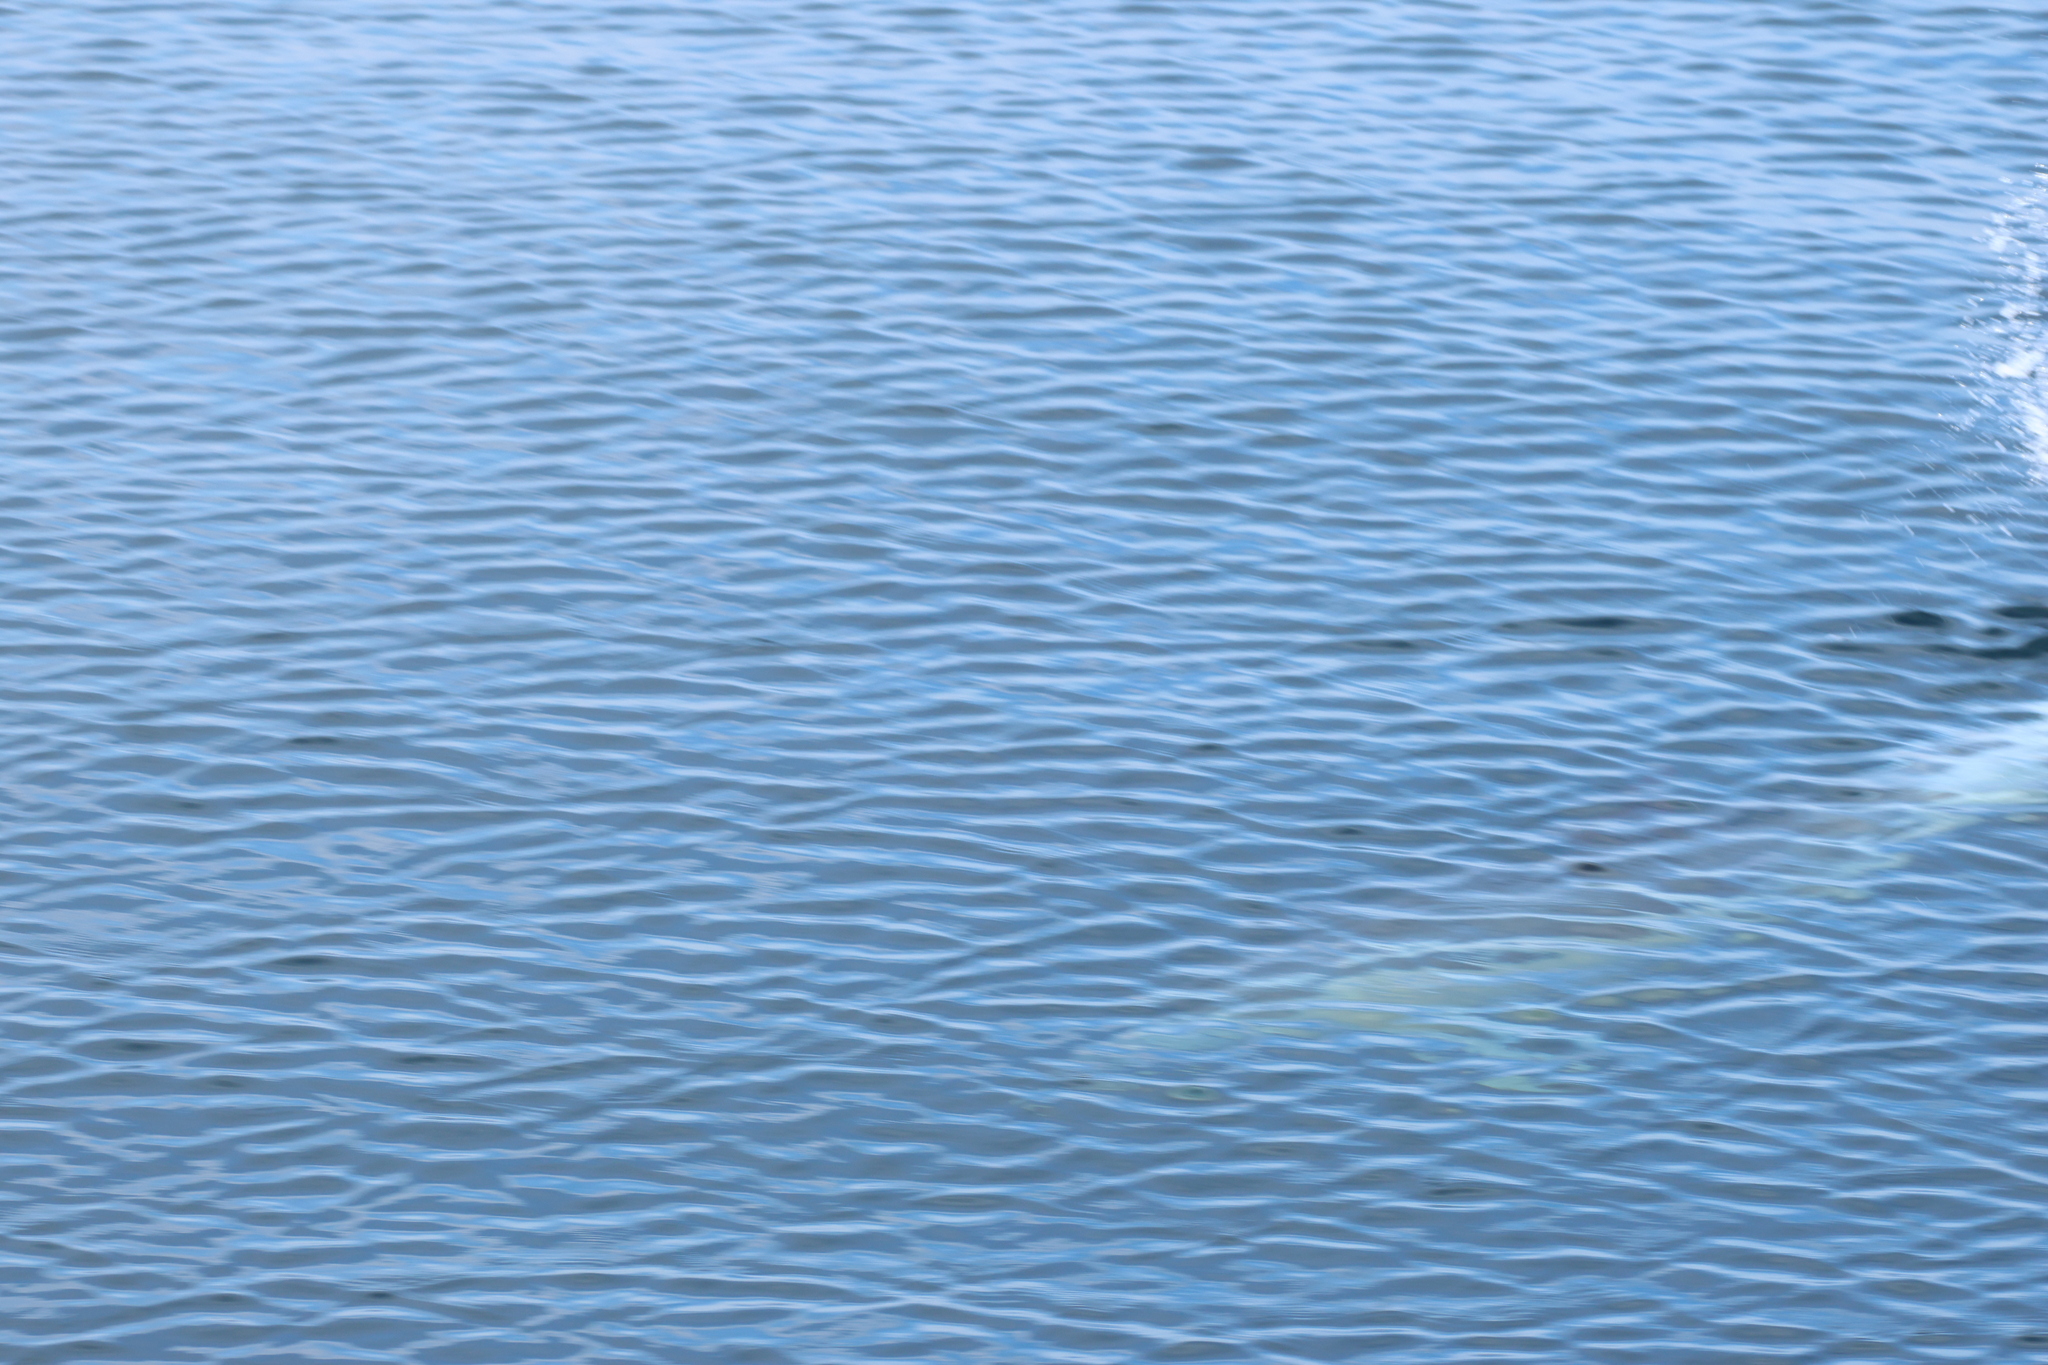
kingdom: Animalia
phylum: Chordata
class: Mammalia
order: Cetacea
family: Delphinidae
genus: Delphinus
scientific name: Delphinus delphis
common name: Common dolphin
